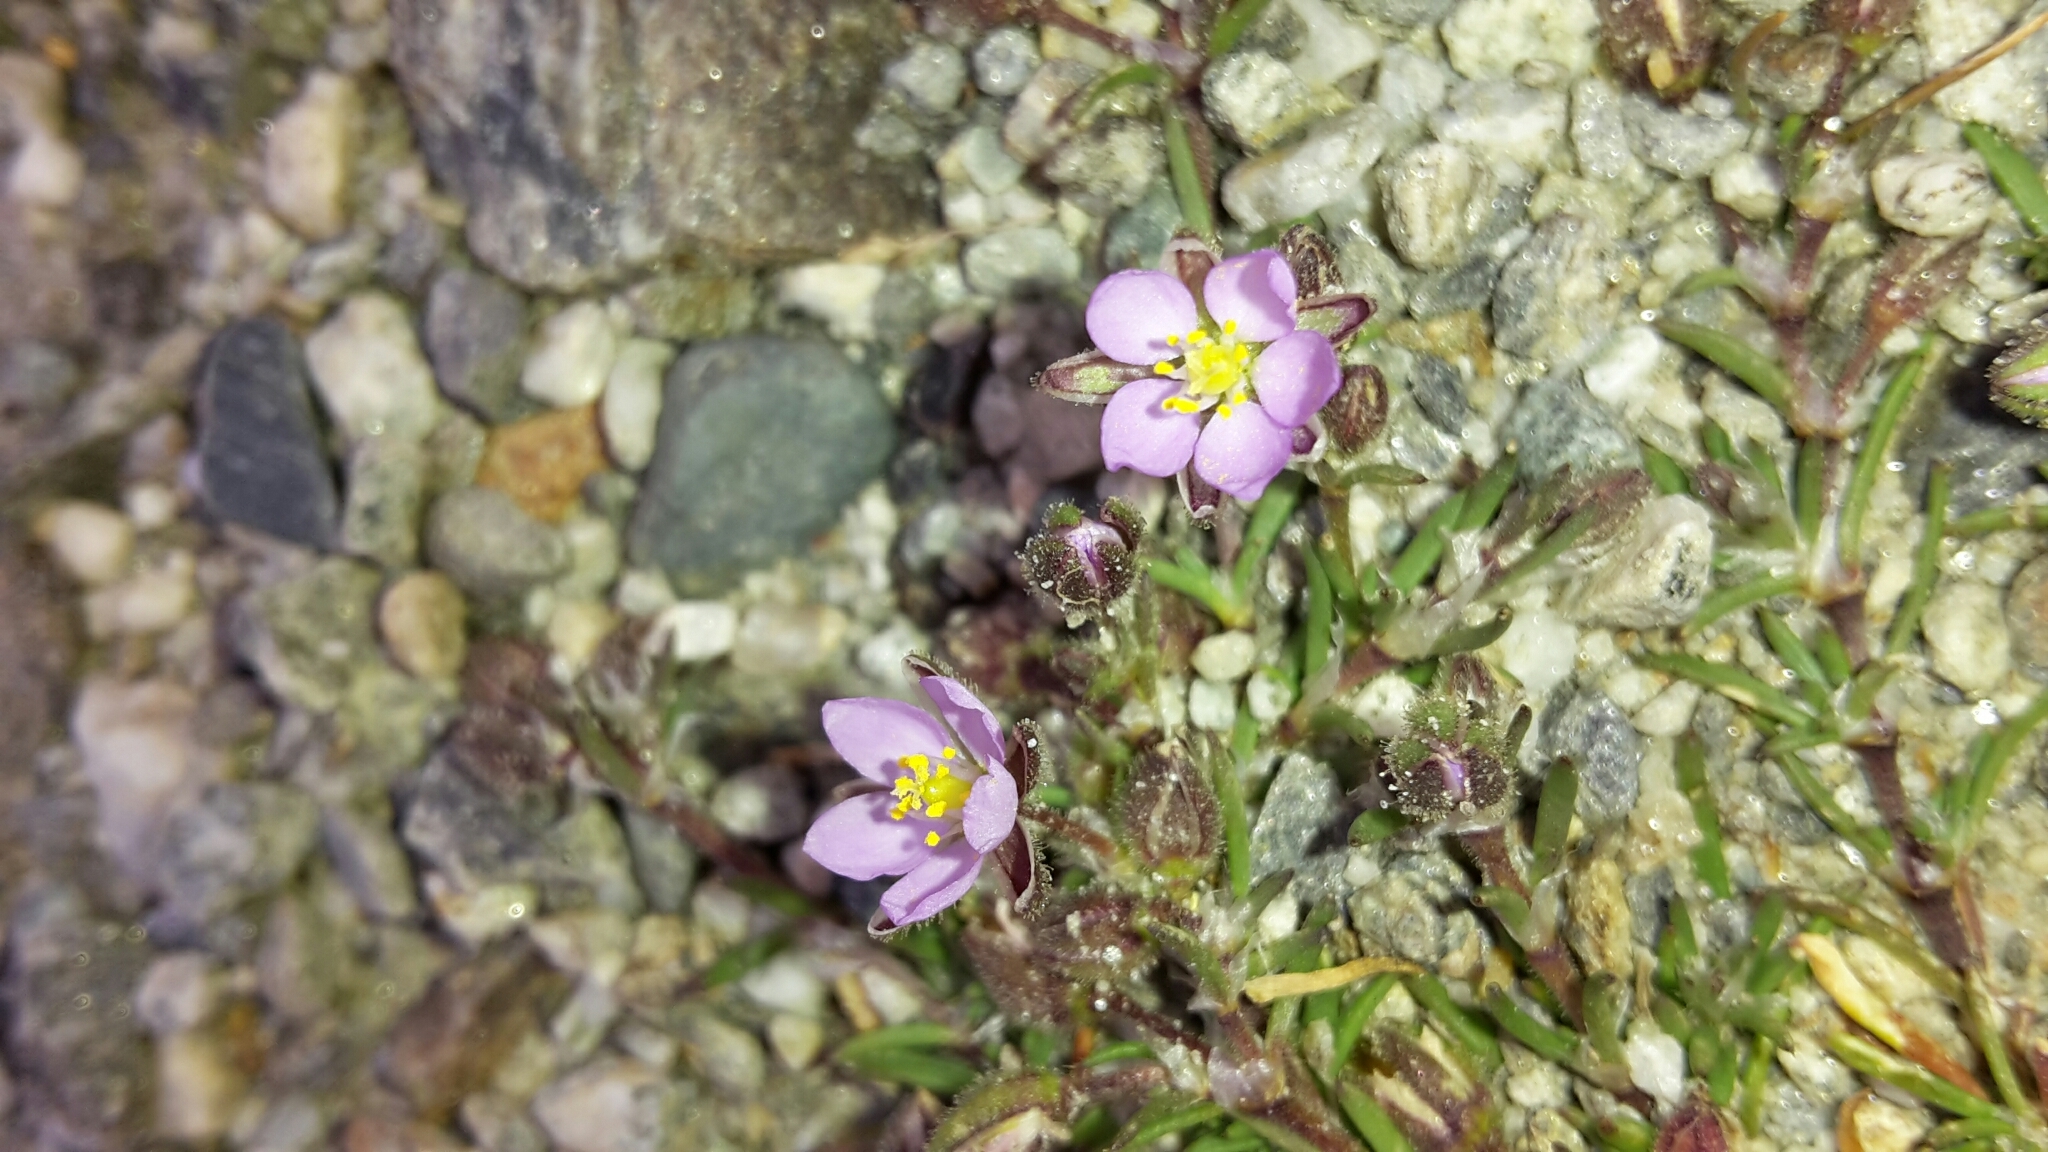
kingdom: Plantae
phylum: Tracheophyta
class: Magnoliopsida
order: Caryophyllales
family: Caryophyllaceae
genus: Spergularia
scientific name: Spergularia rubra
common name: Red sand-spurrey
